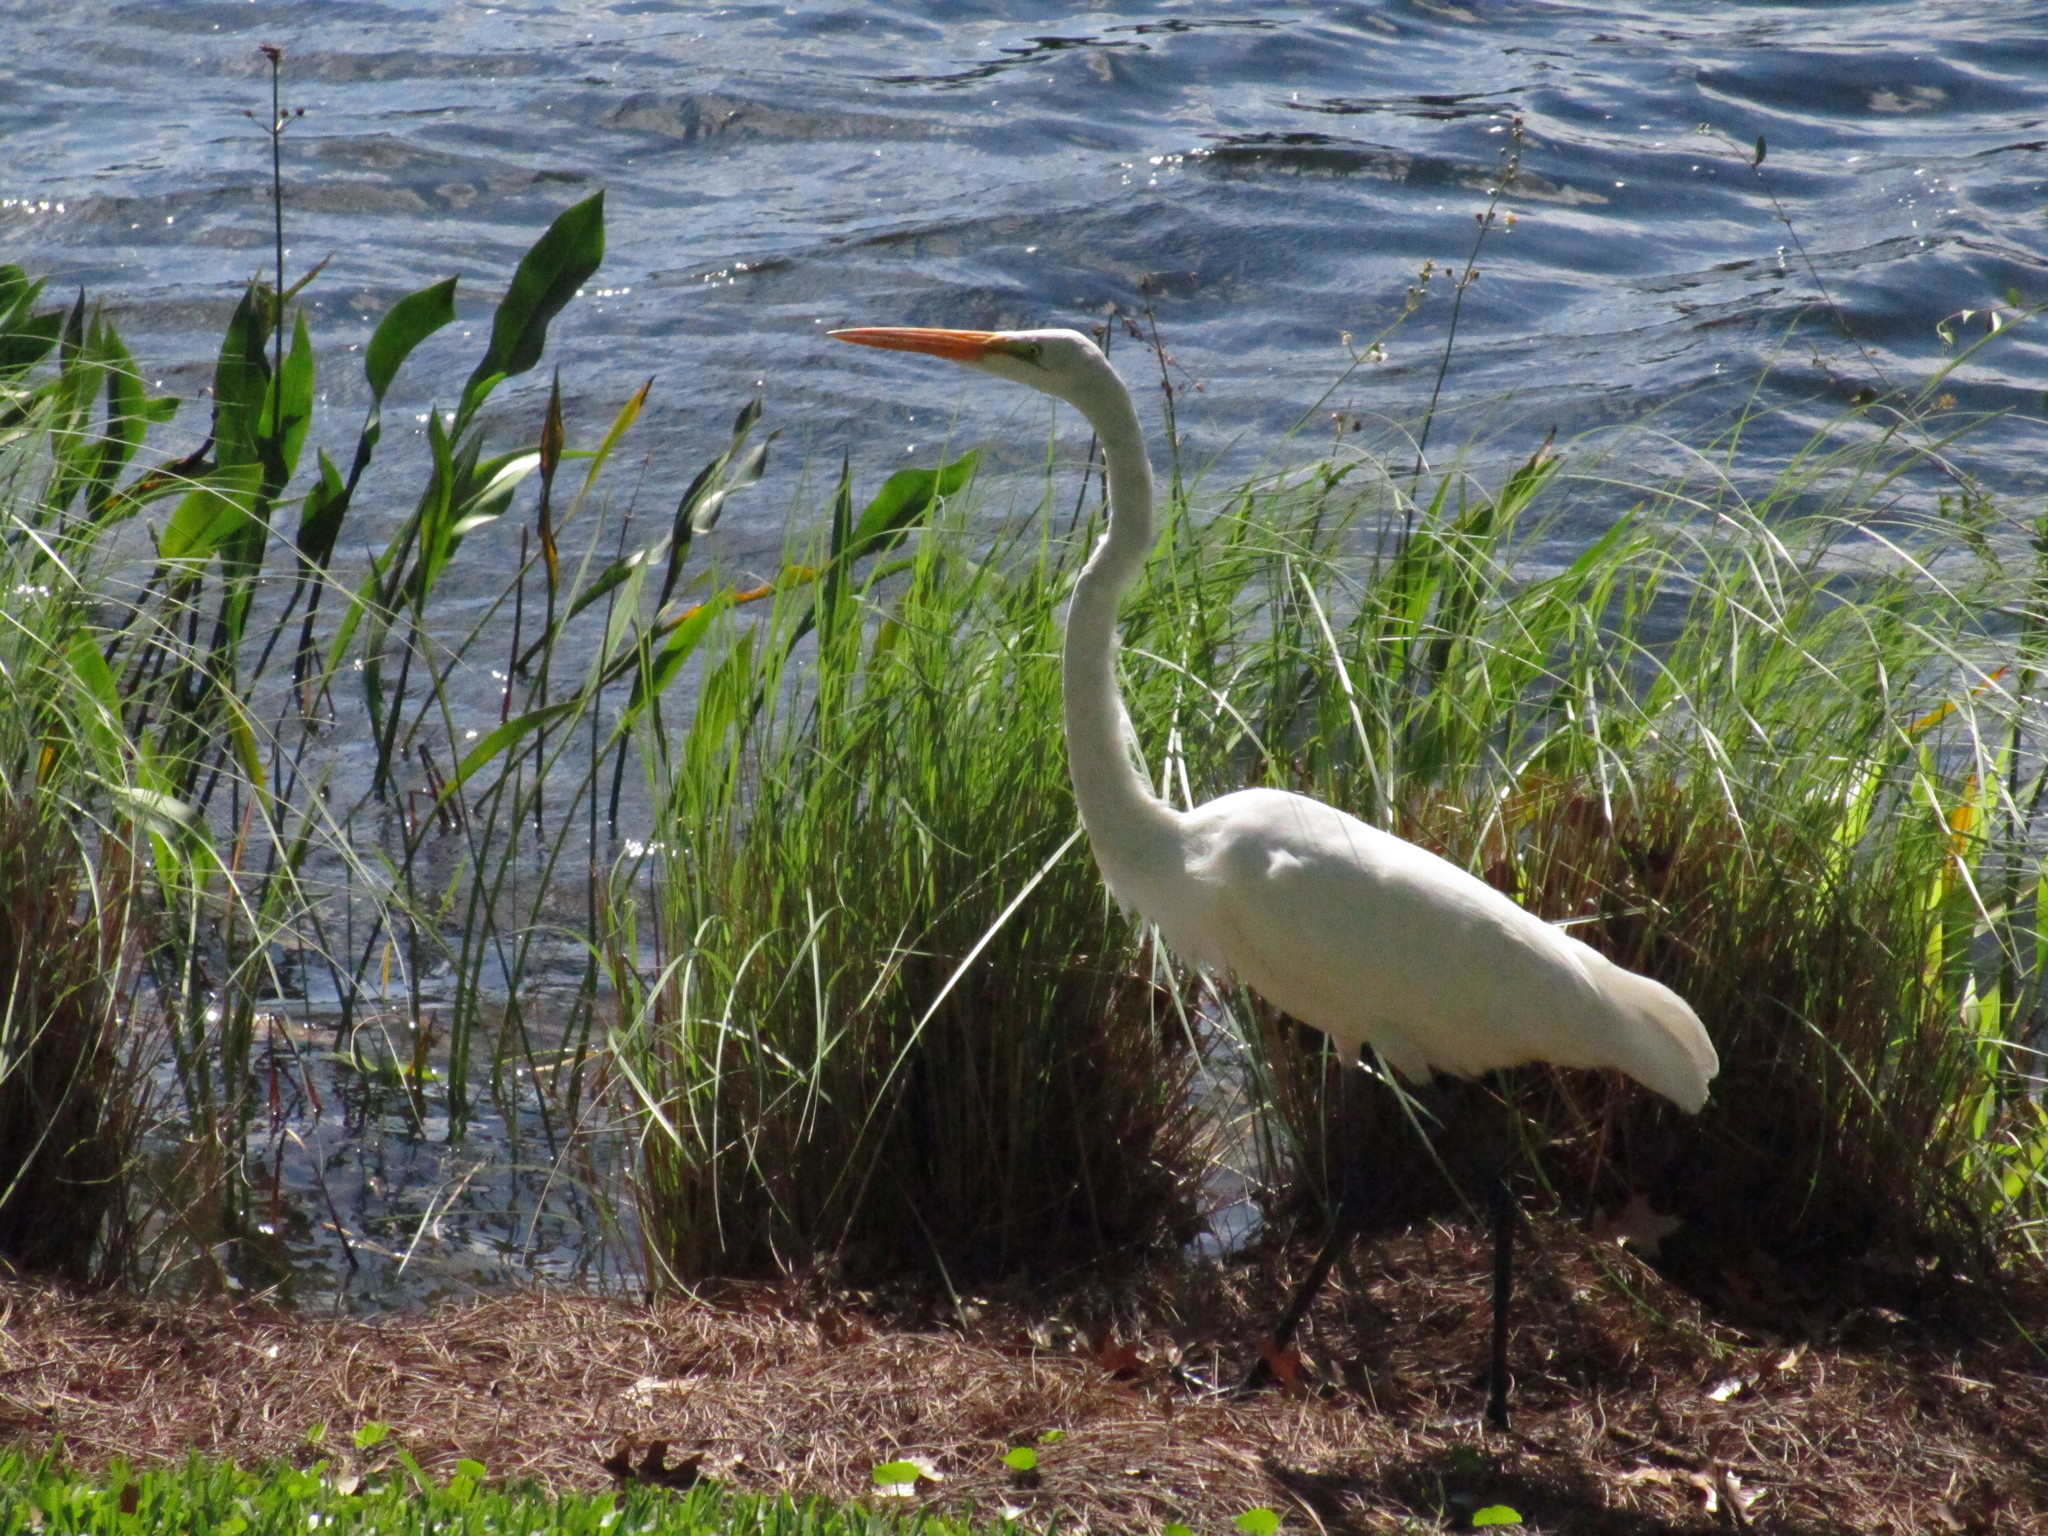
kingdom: Animalia
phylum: Chordata
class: Aves
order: Pelecaniformes
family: Ardeidae
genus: Ardea
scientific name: Ardea alba
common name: Great egret
